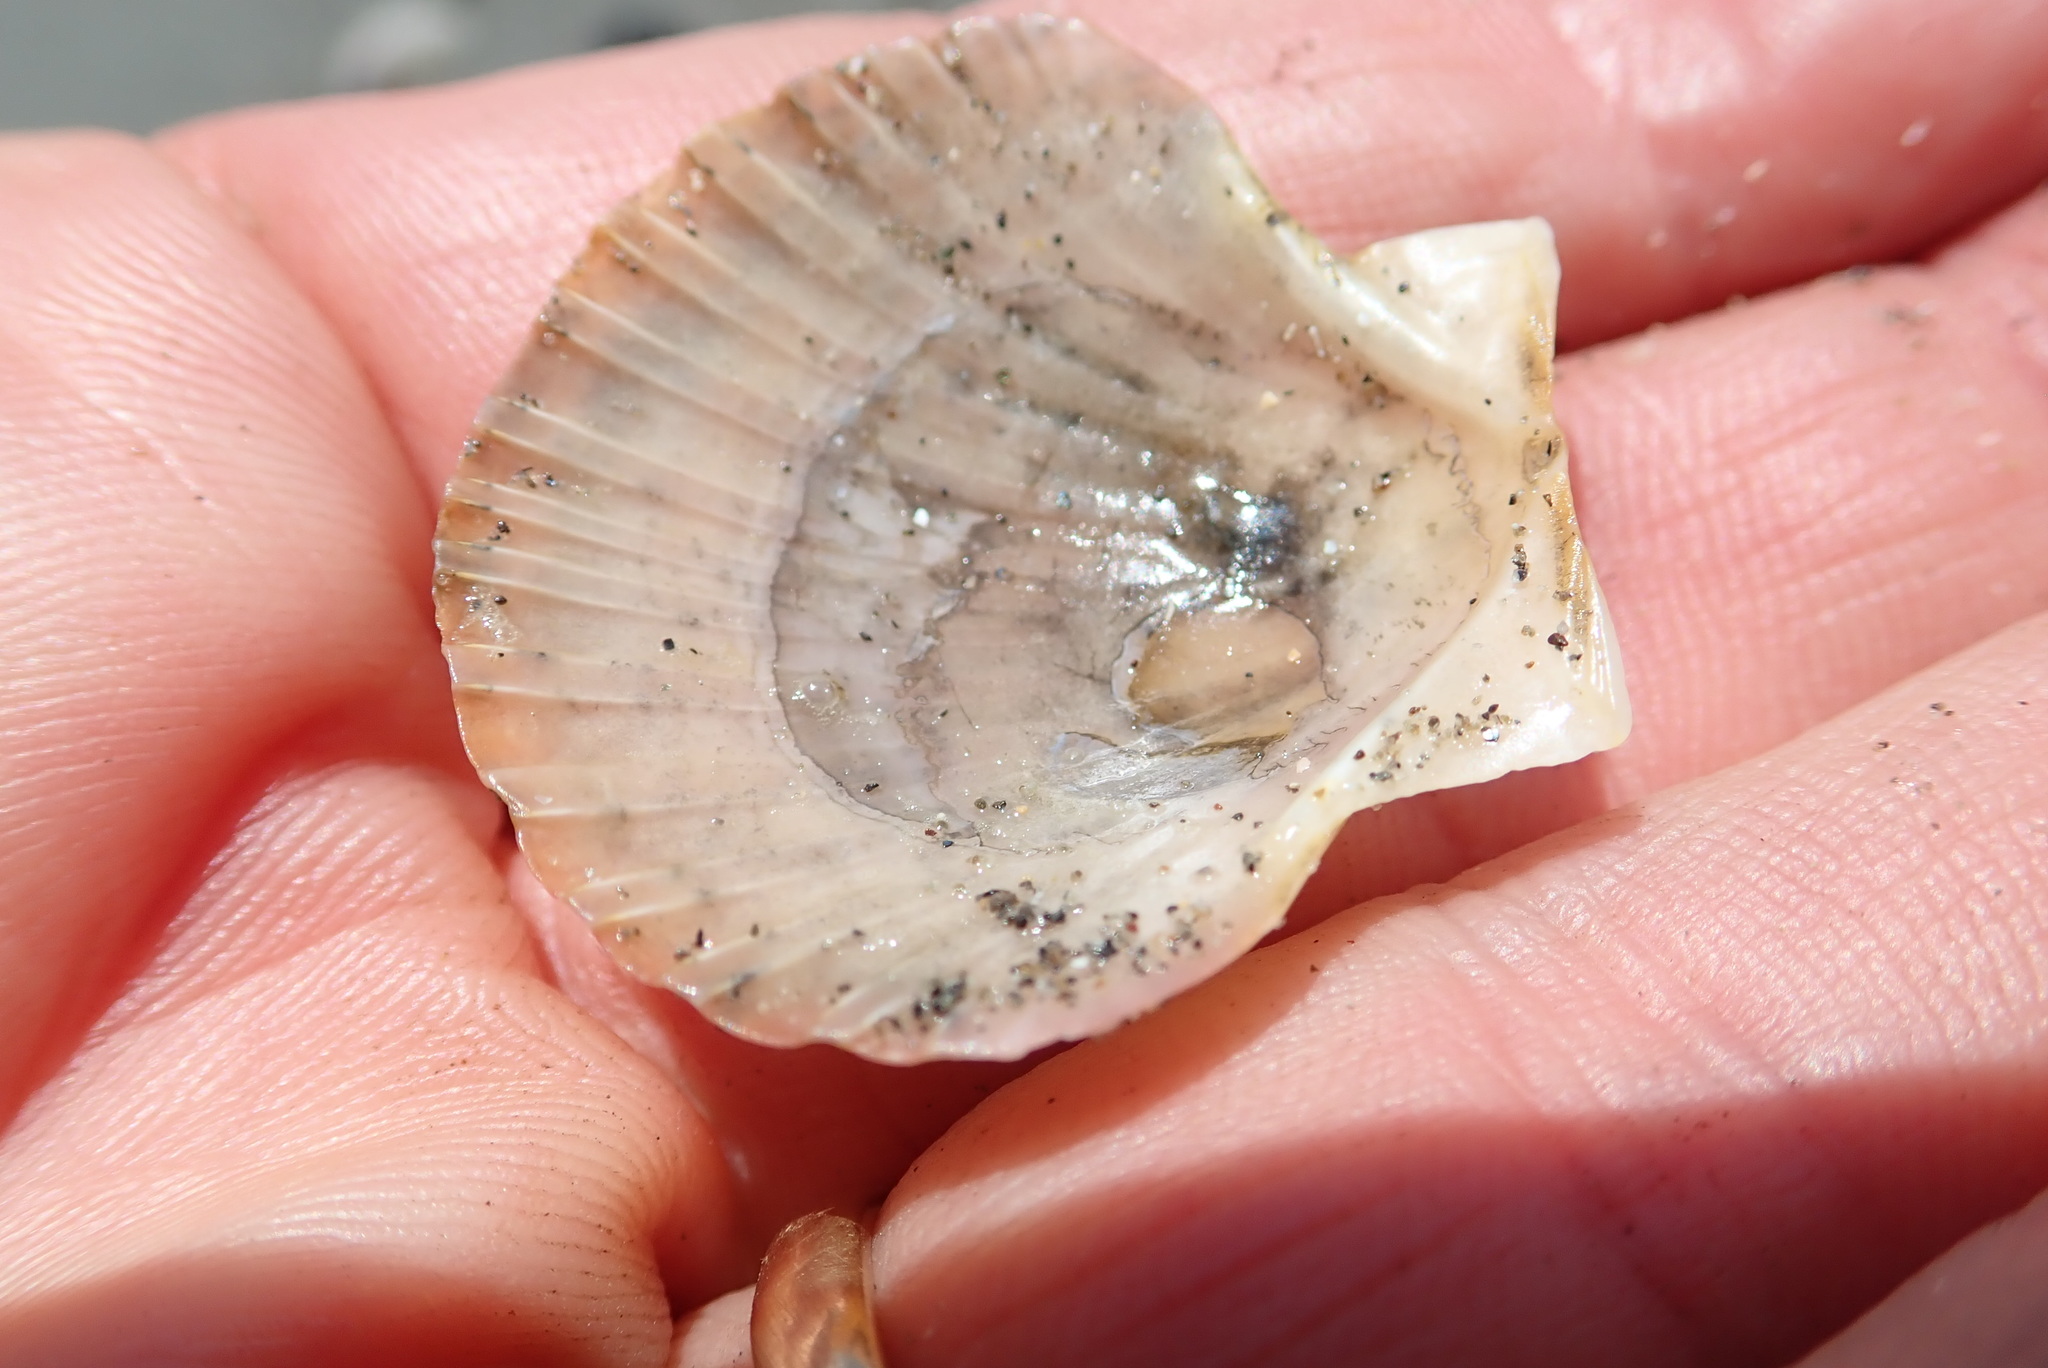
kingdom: Animalia
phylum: Mollusca
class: Bivalvia
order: Pectinida
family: Pectinidae
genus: Pecten
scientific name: Pecten novaezelandiae
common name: New zealand scallop
